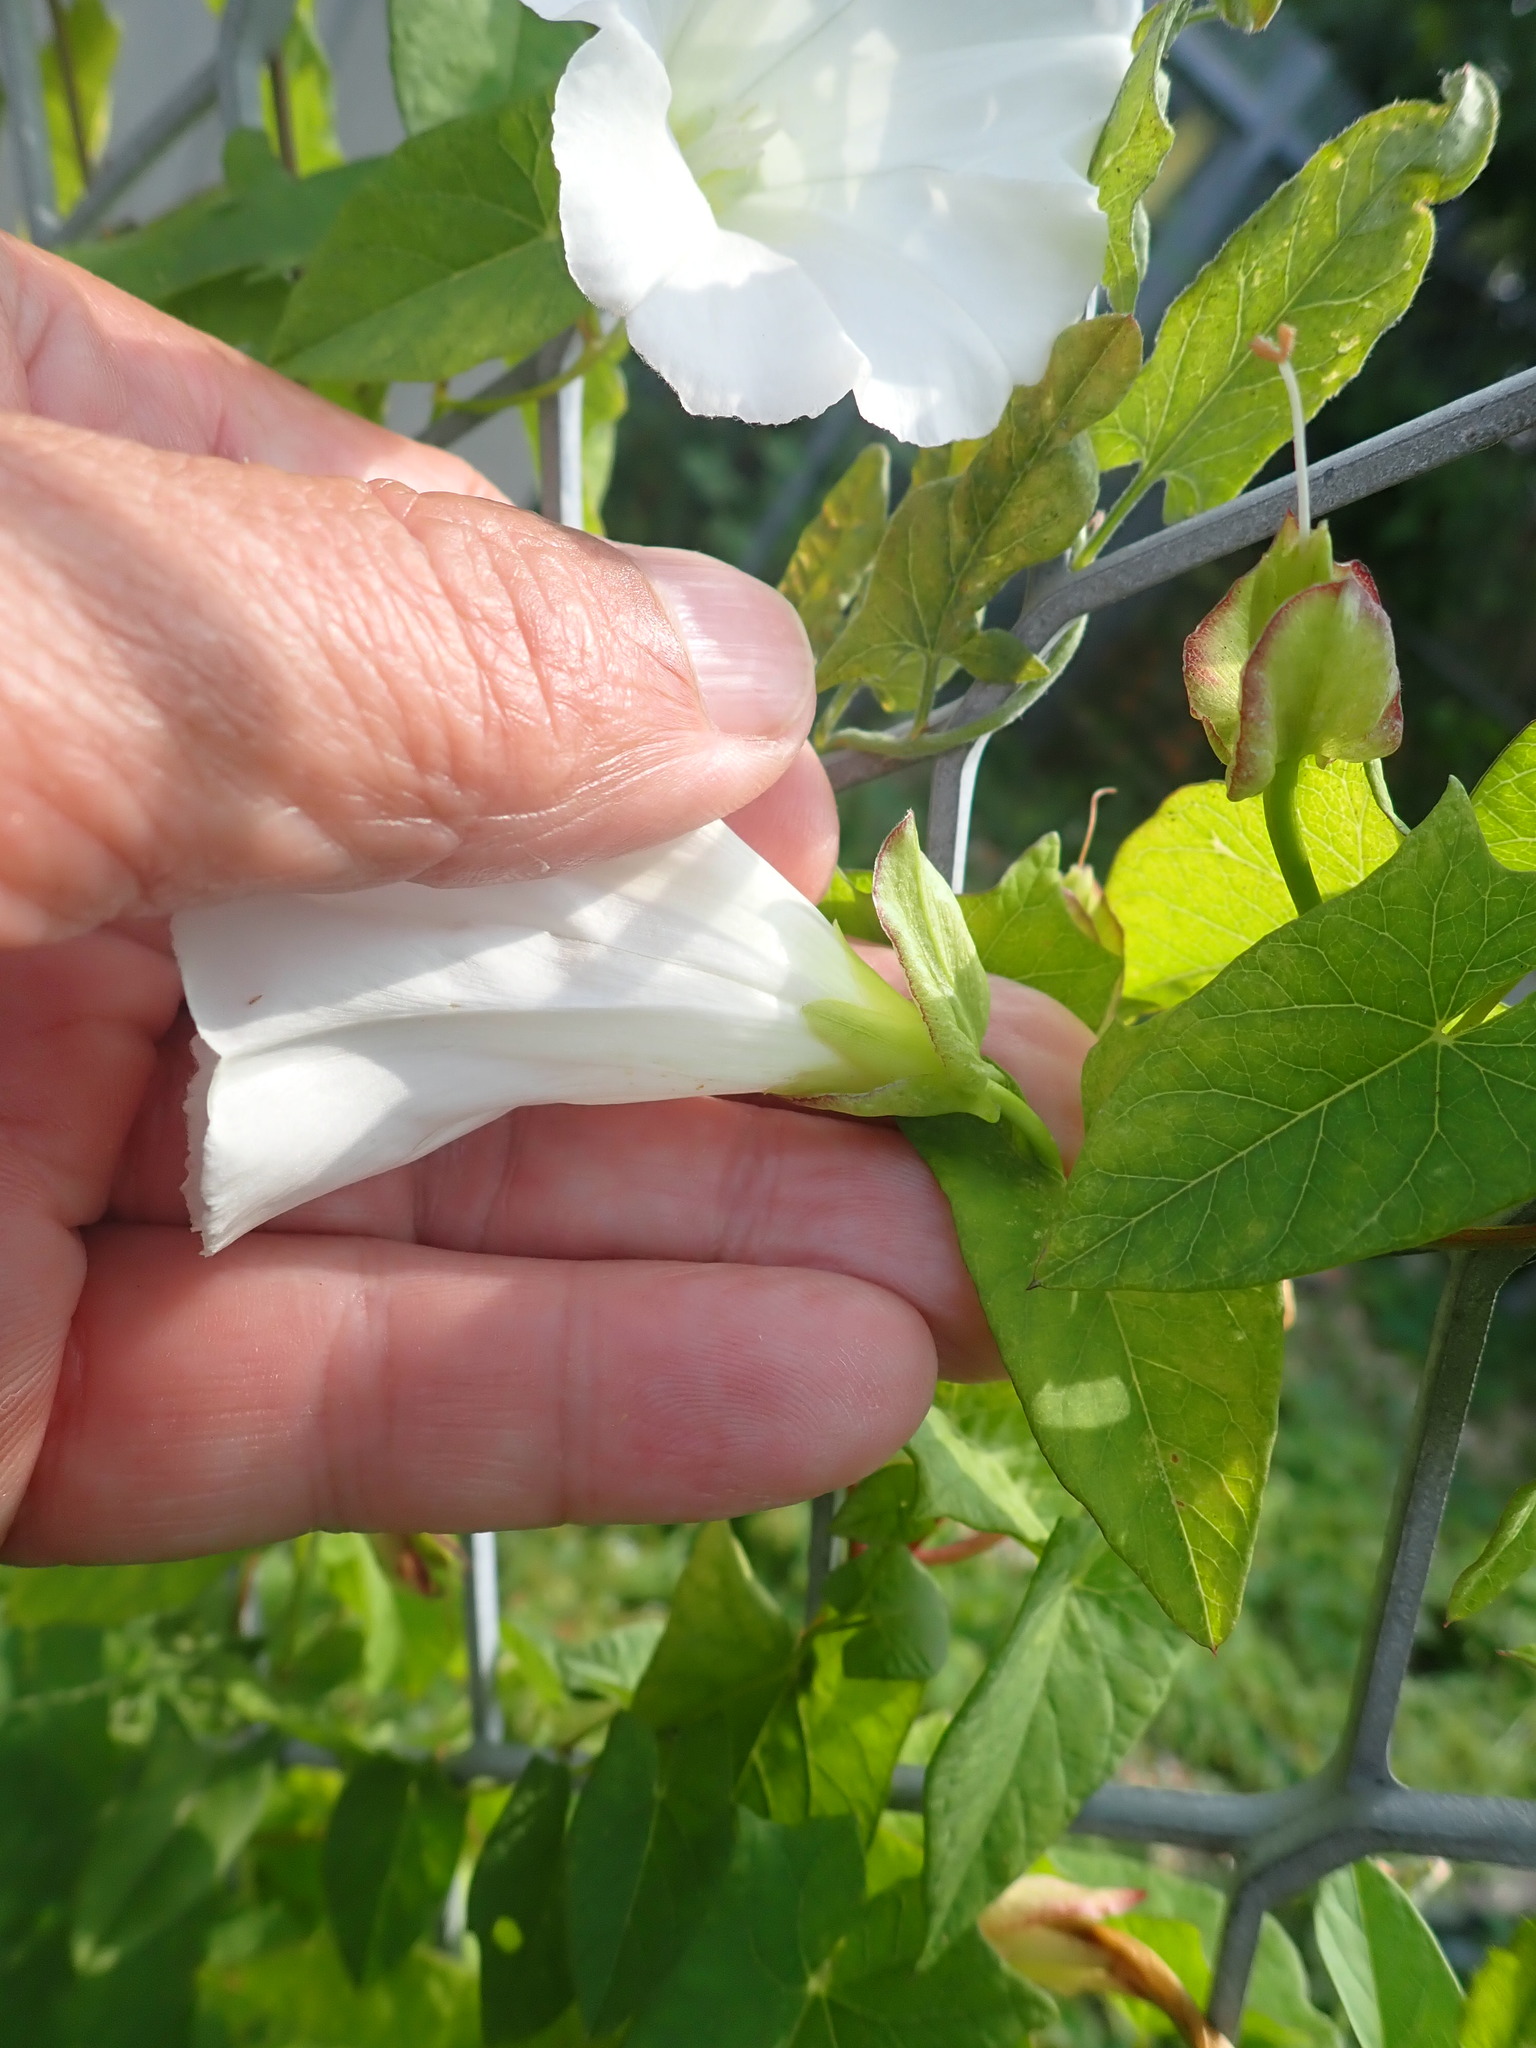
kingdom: Plantae
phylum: Tracheophyta
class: Magnoliopsida
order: Solanales
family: Convolvulaceae
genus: Calystegia
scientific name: Calystegia sepium
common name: Hedge bindweed
